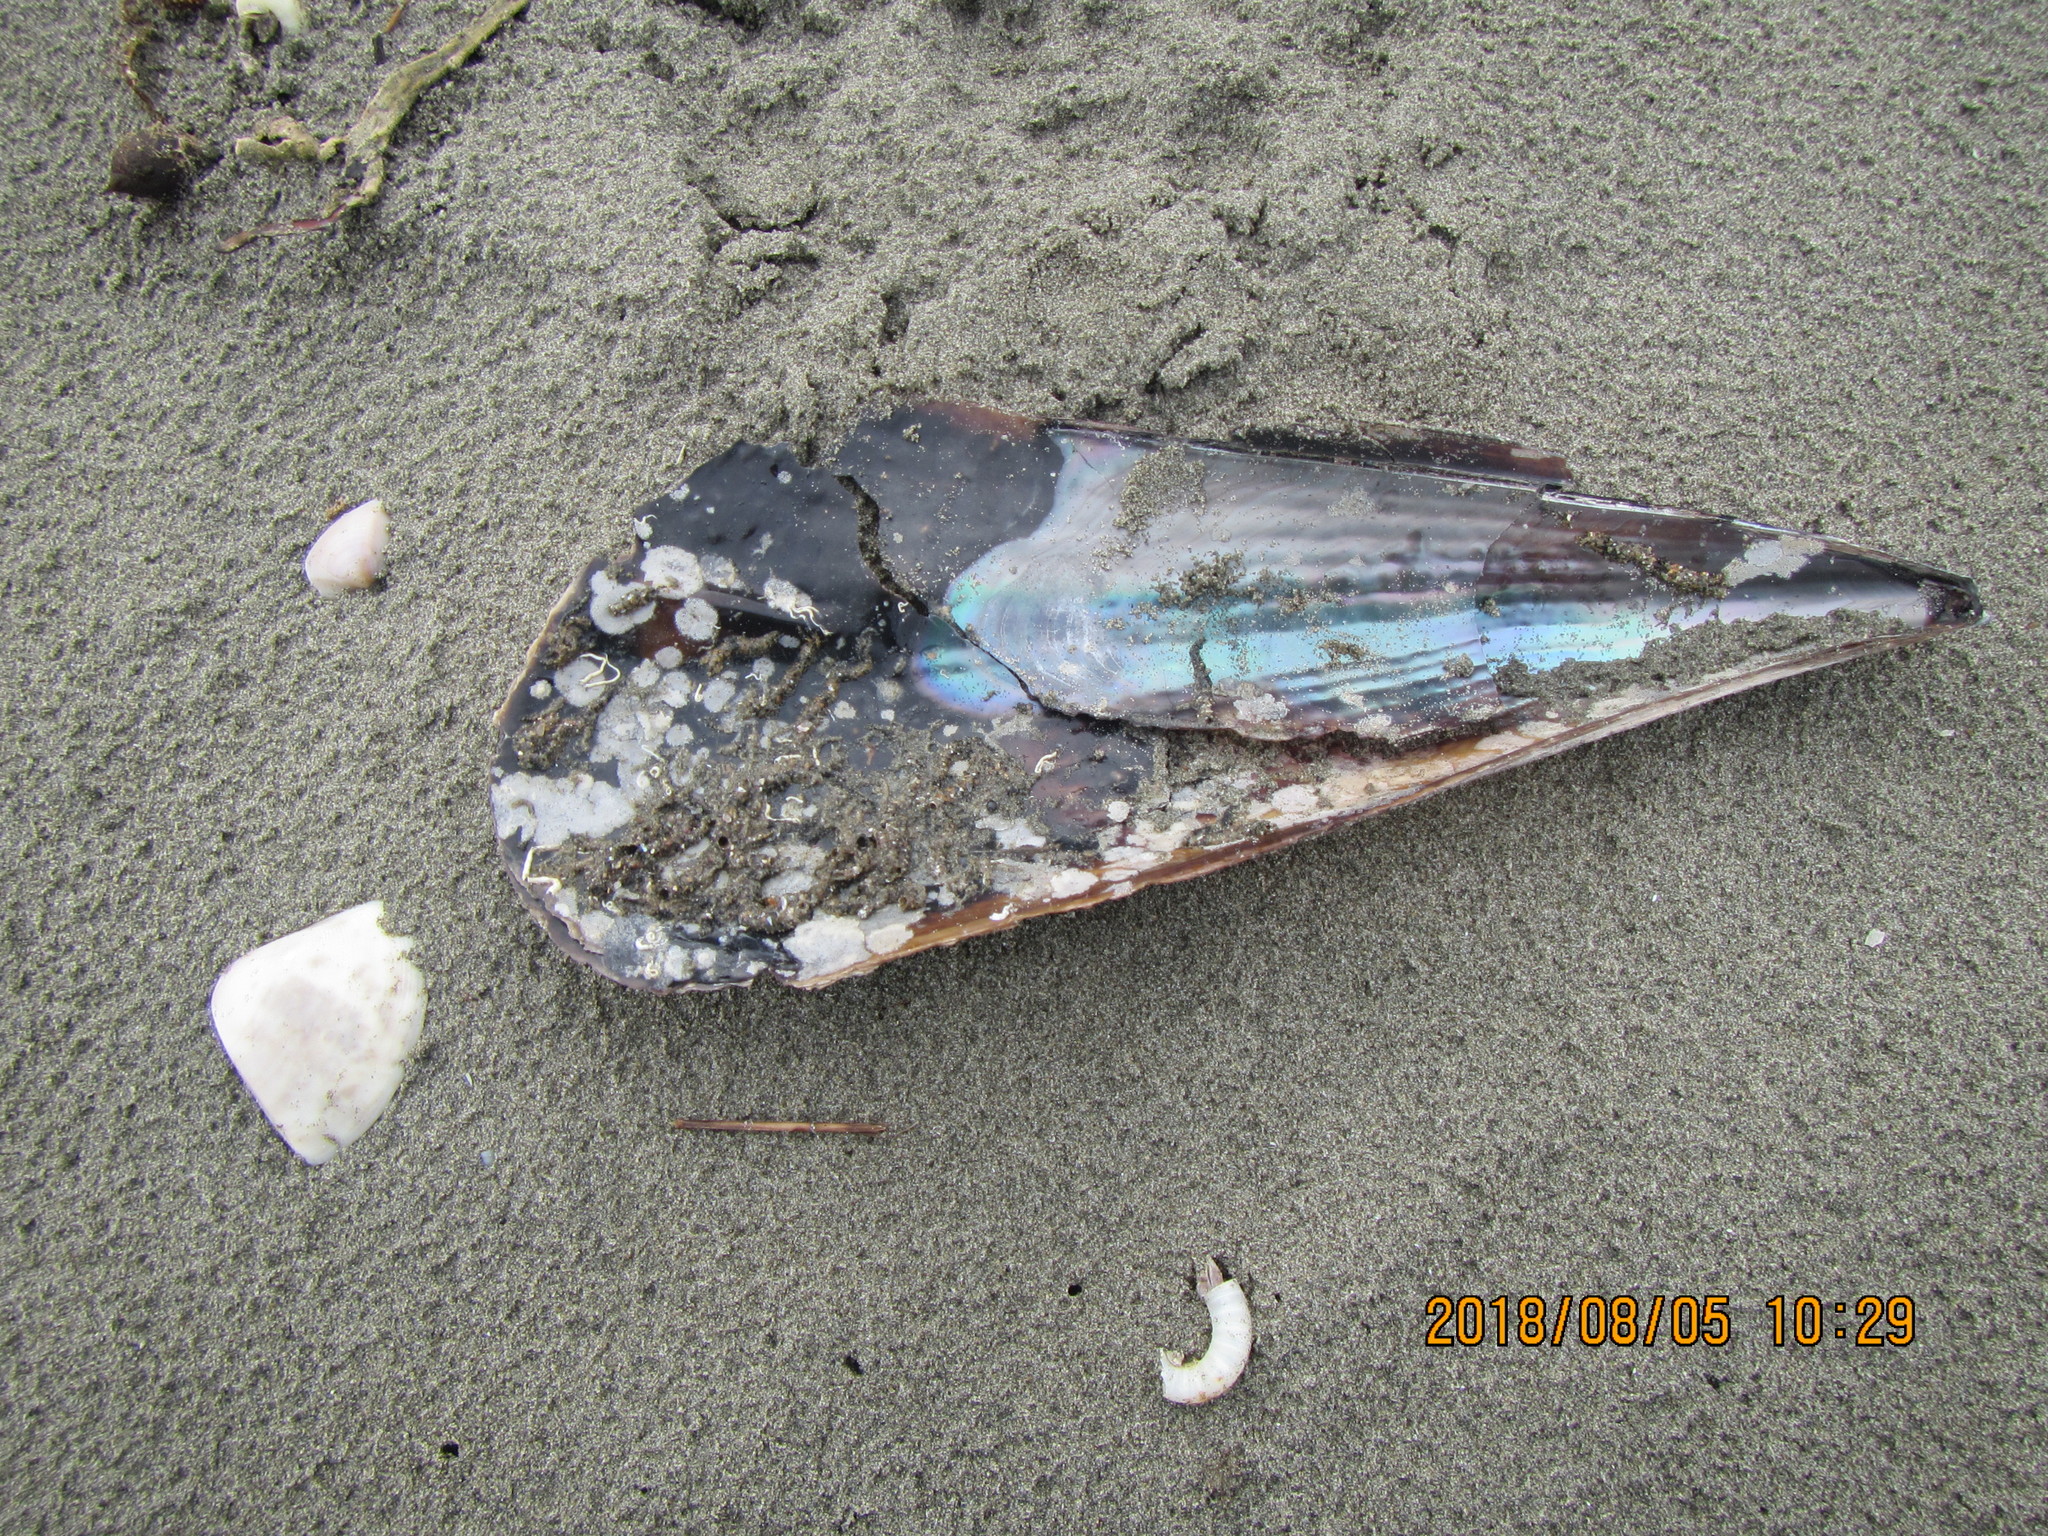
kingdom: Animalia
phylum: Mollusca
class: Bivalvia
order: Ostreida
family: Pinnidae
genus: Atrina
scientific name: Atrina zelandica
